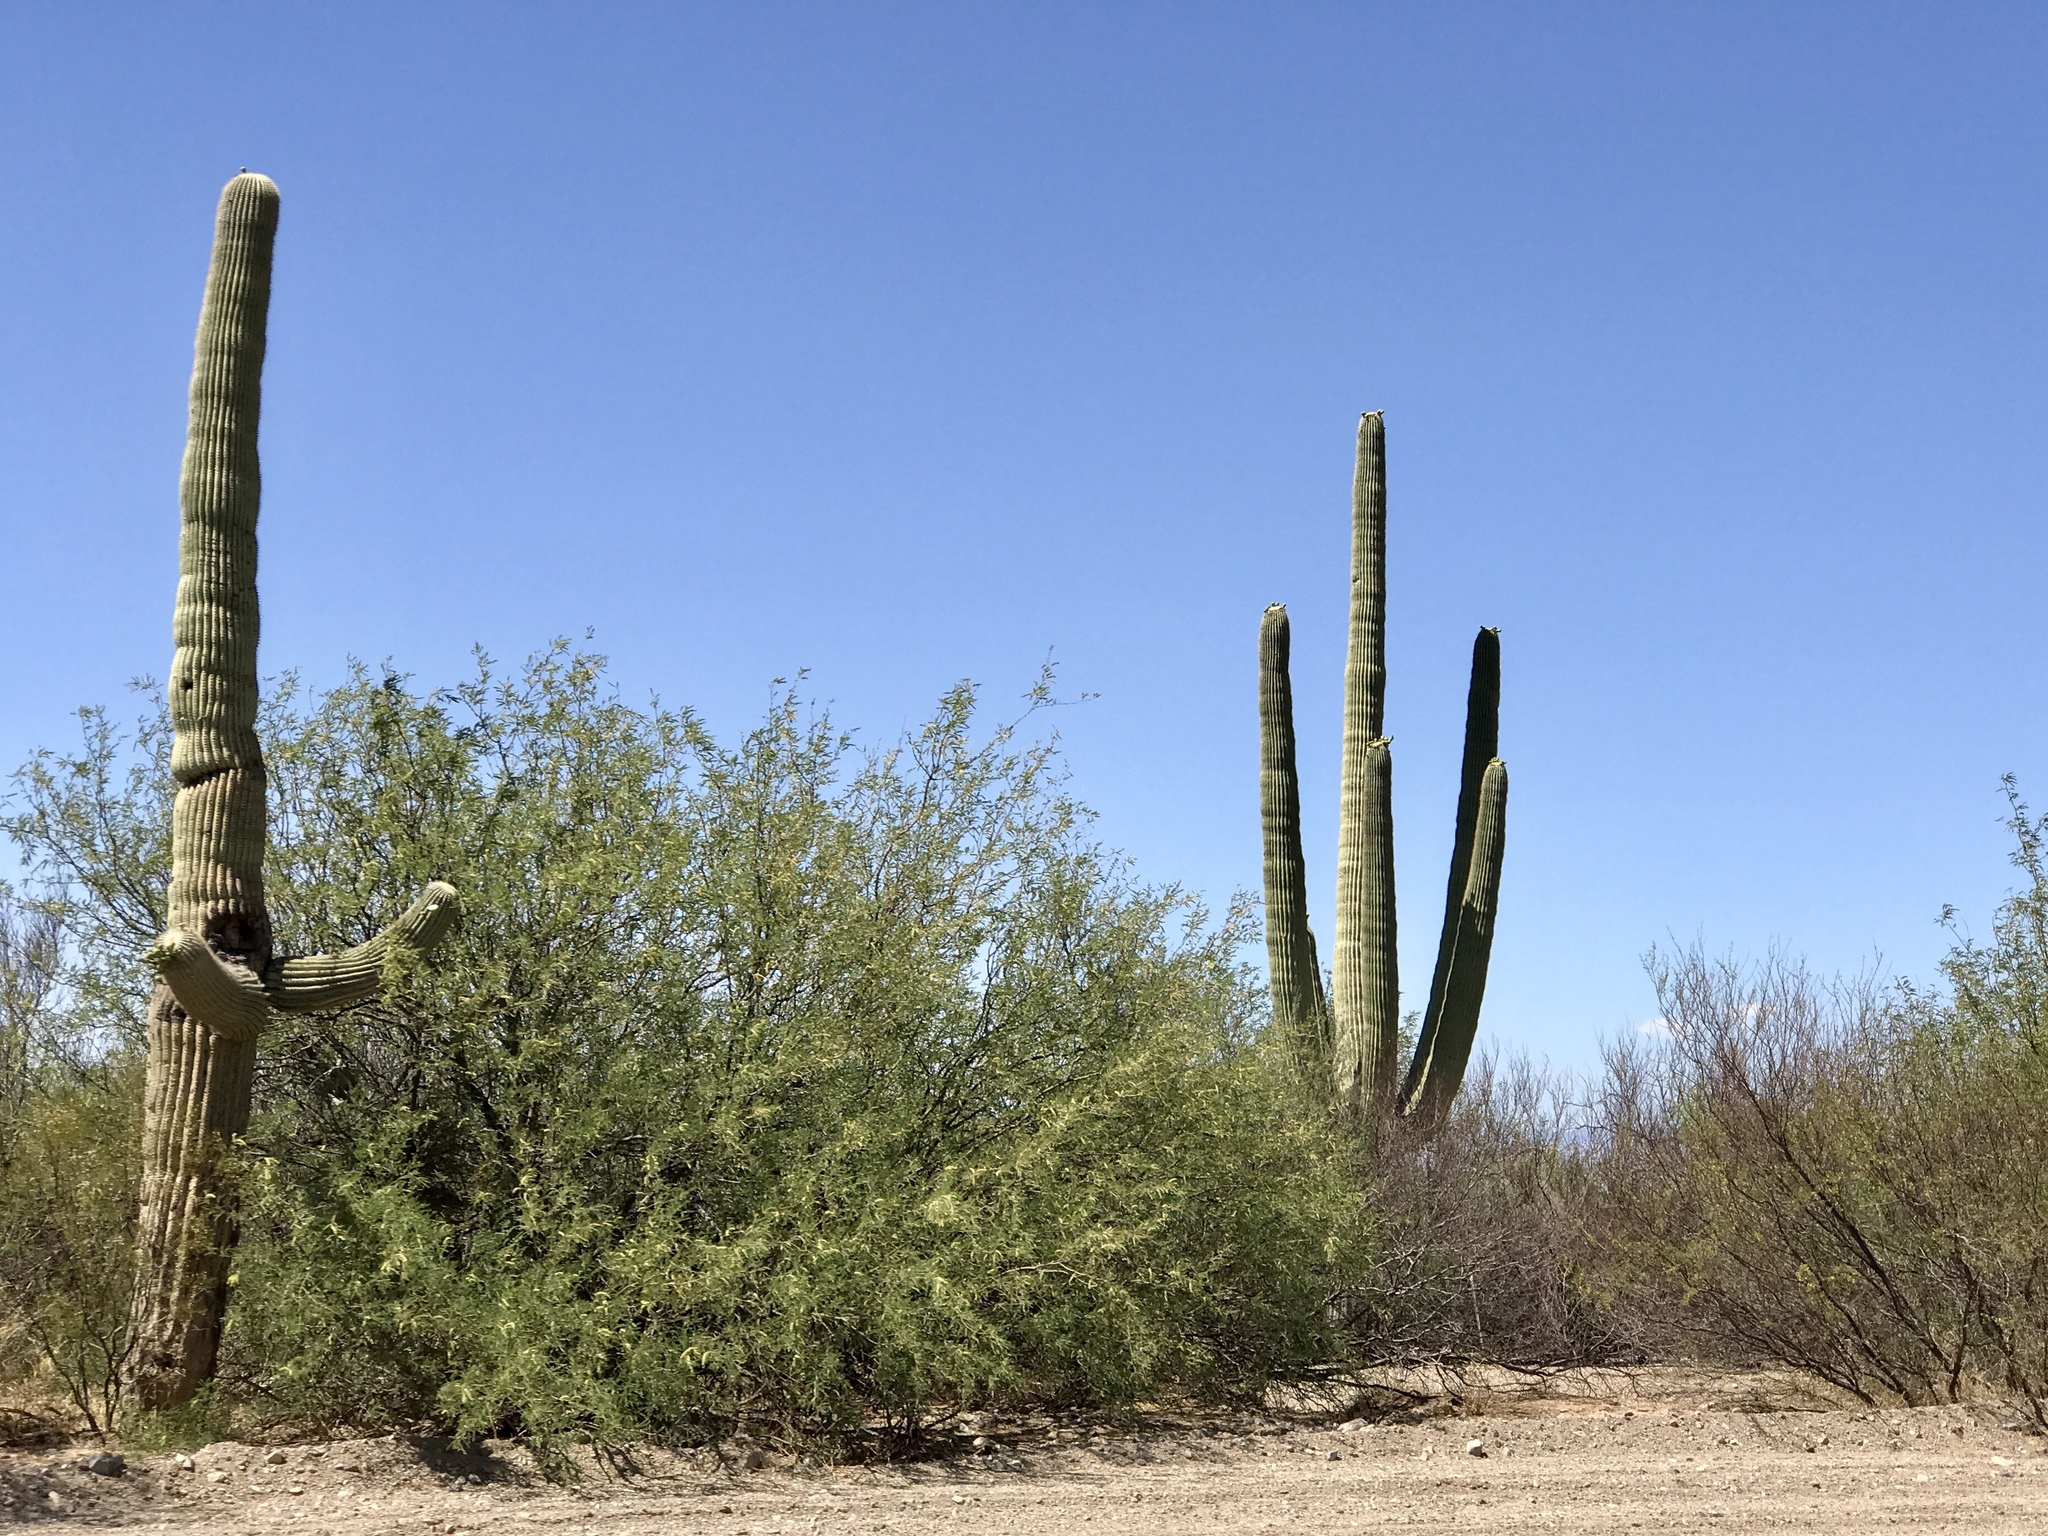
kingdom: Plantae
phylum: Tracheophyta
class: Magnoliopsida
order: Caryophyllales
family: Cactaceae
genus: Carnegiea
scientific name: Carnegiea gigantea
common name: Saguaro
